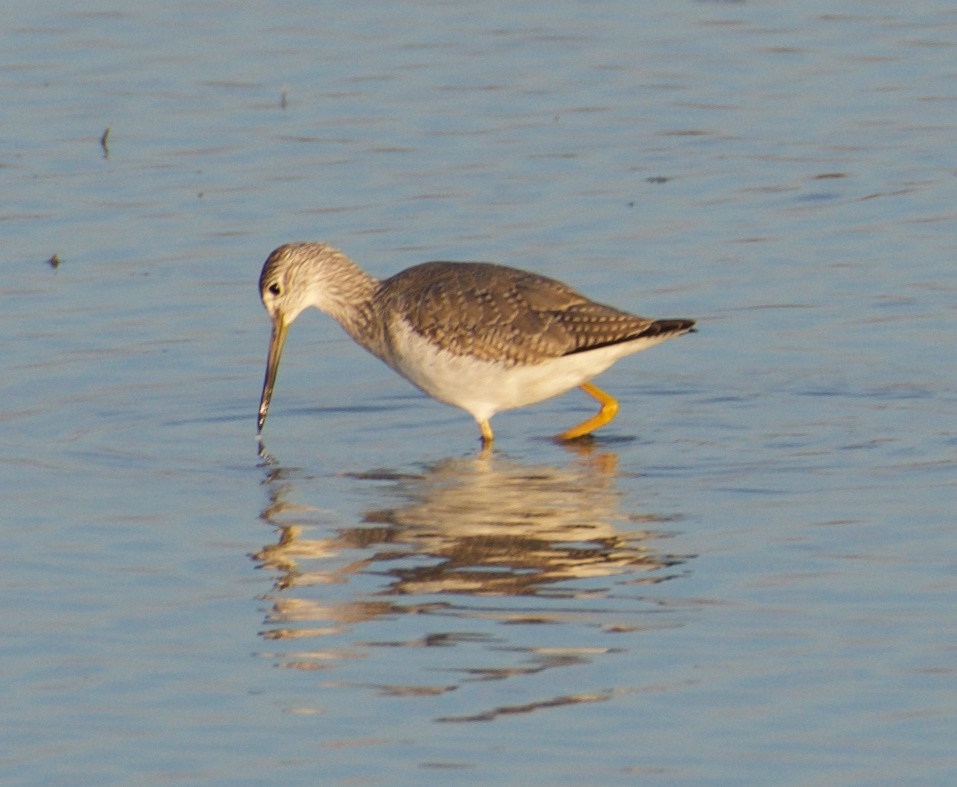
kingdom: Animalia
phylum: Chordata
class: Aves
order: Charadriiformes
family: Scolopacidae
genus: Tringa
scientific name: Tringa melanoleuca
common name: Greater yellowlegs
